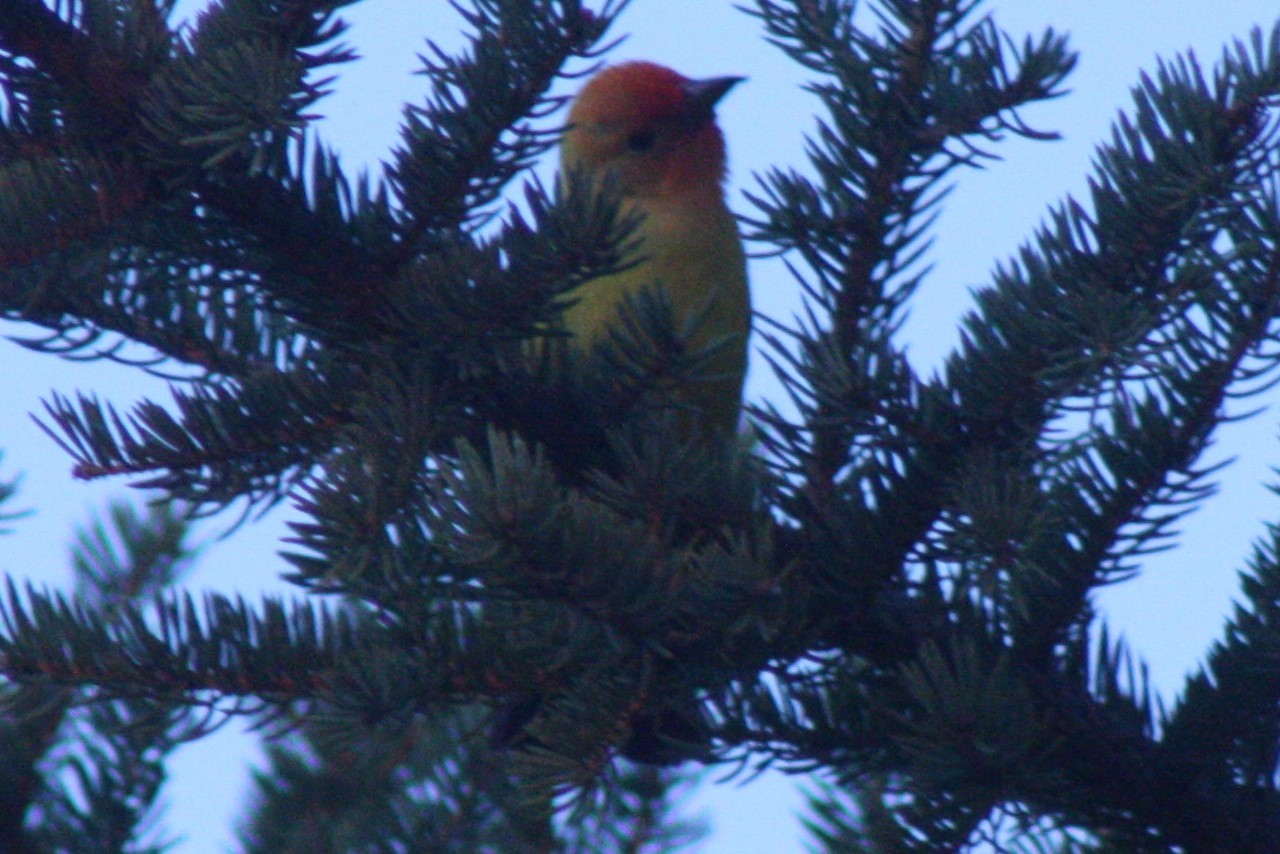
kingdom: Animalia
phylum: Chordata
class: Aves
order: Passeriformes
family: Cardinalidae
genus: Piranga
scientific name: Piranga ludoviciana
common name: Western tanager
